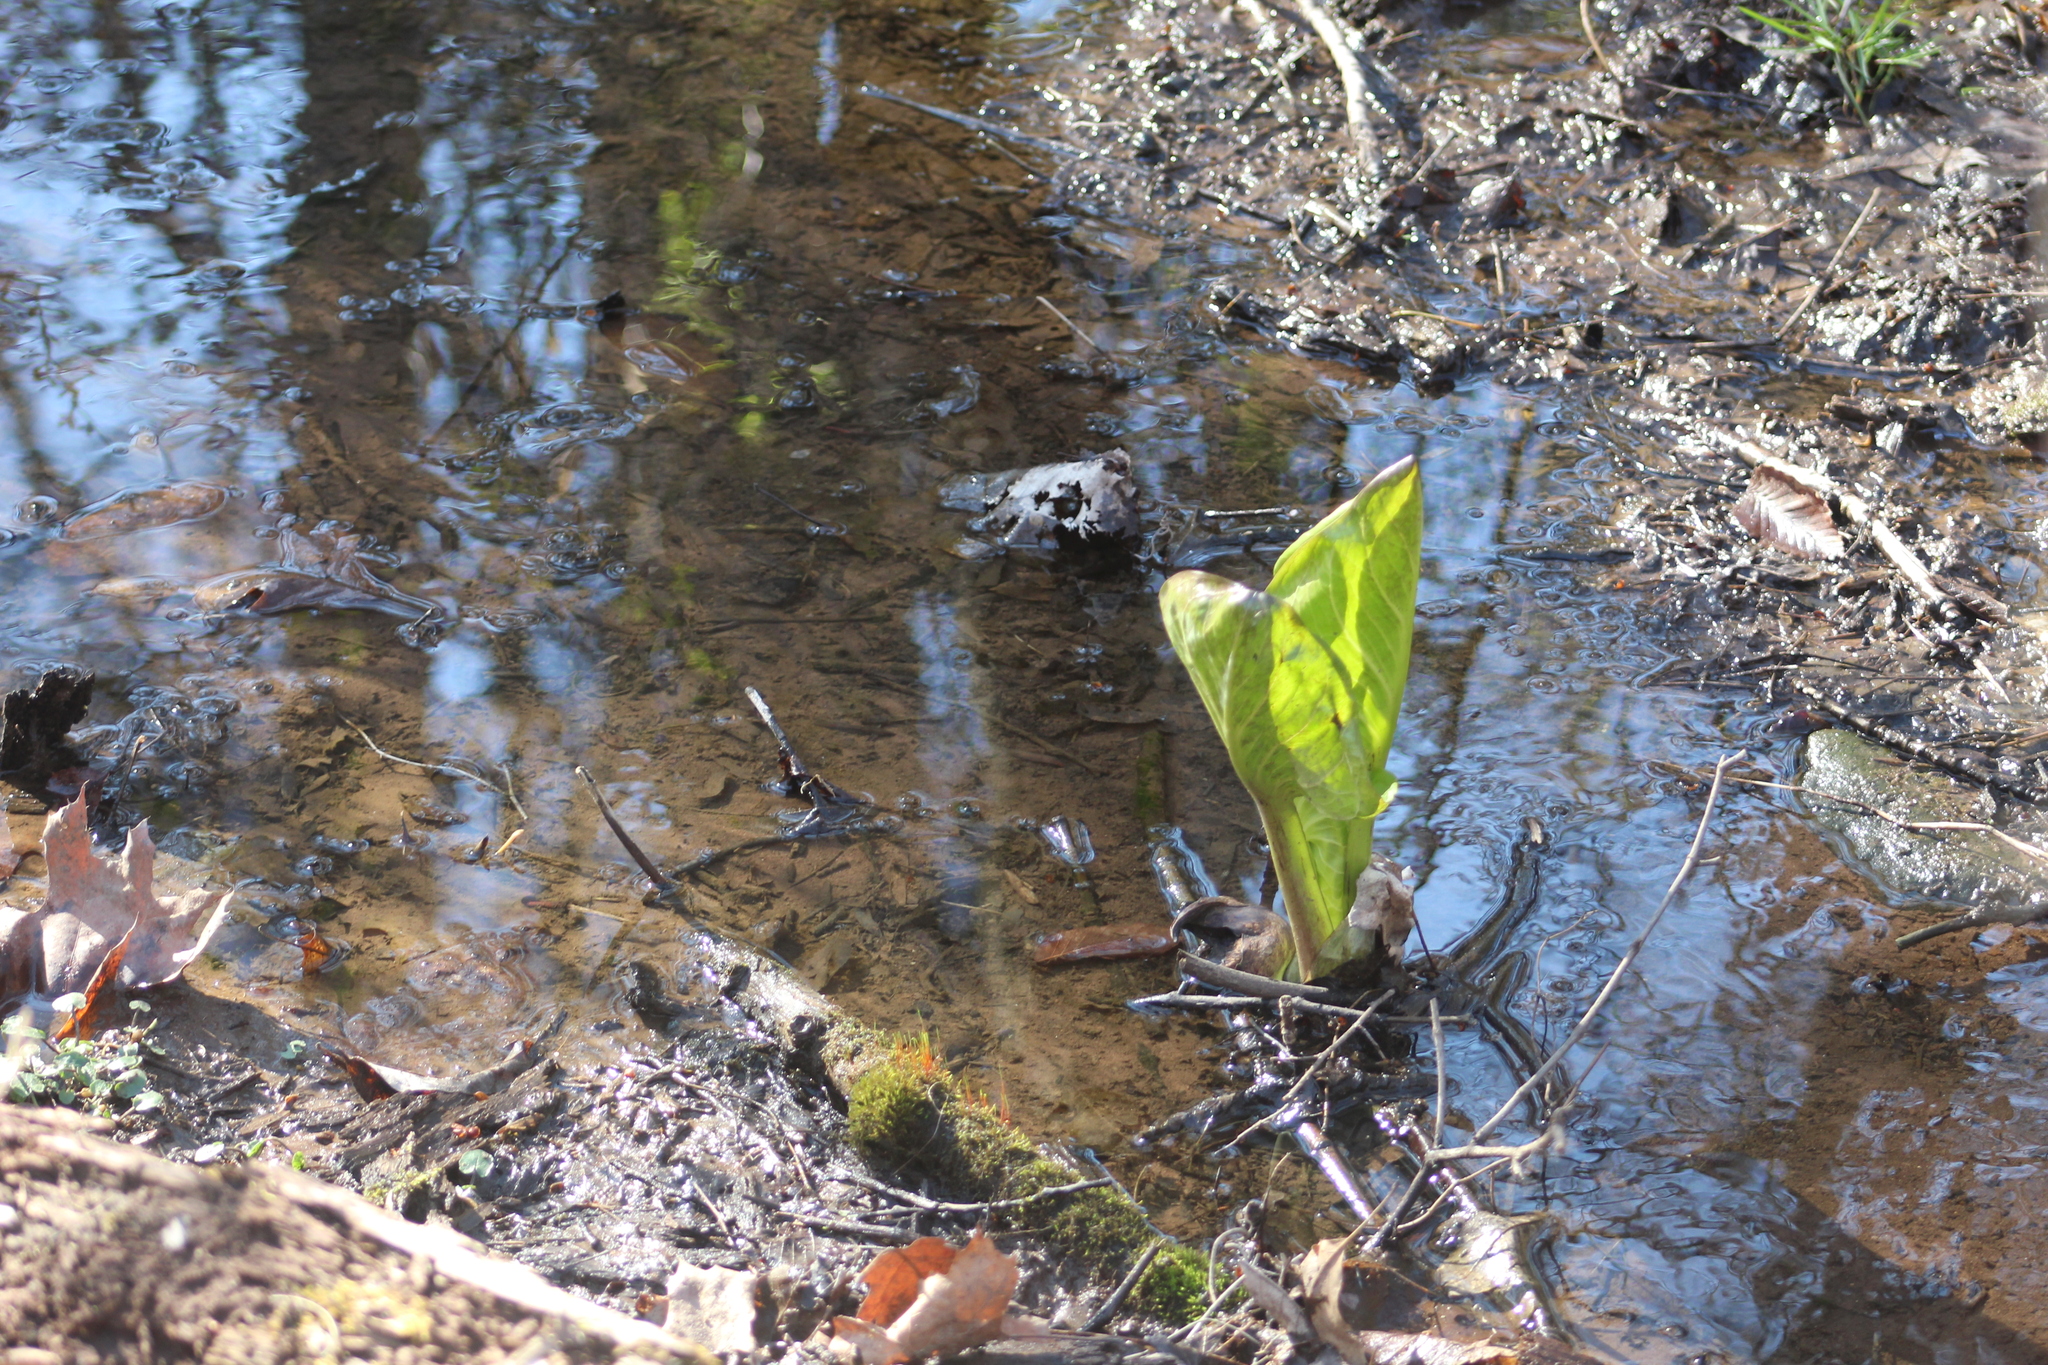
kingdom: Plantae
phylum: Tracheophyta
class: Liliopsida
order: Alismatales
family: Araceae
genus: Symplocarpus
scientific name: Symplocarpus foetidus
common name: Eastern skunk cabbage
